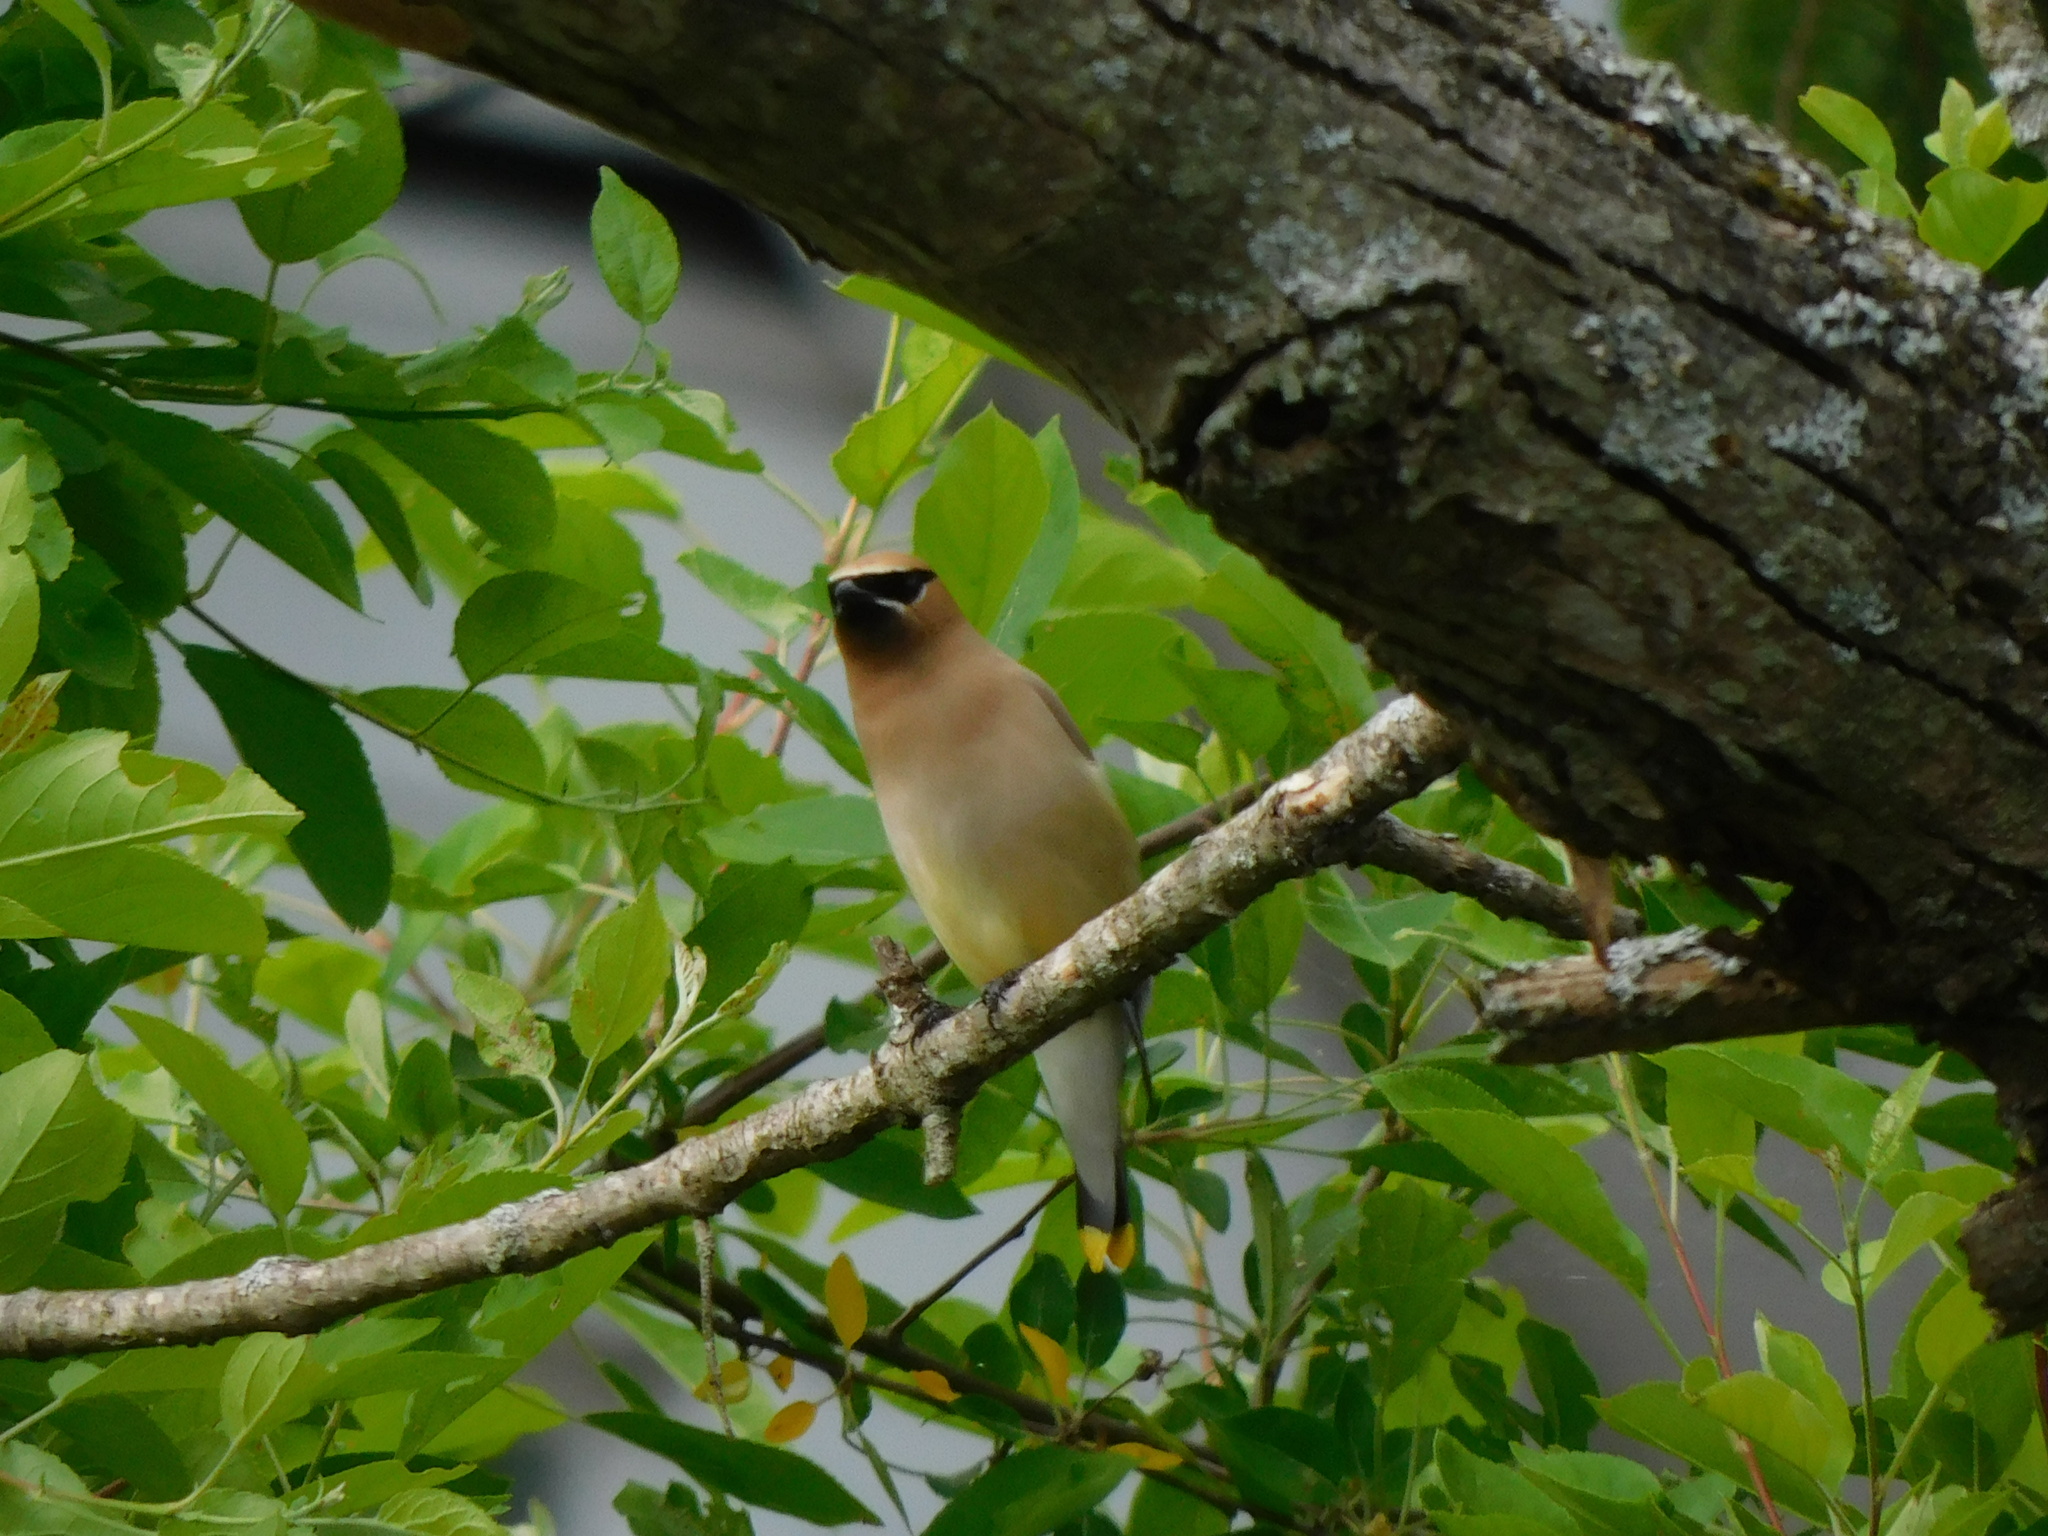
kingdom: Animalia
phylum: Chordata
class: Aves
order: Passeriformes
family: Bombycillidae
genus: Bombycilla
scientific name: Bombycilla cedrorum
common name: Cedar waxwing
